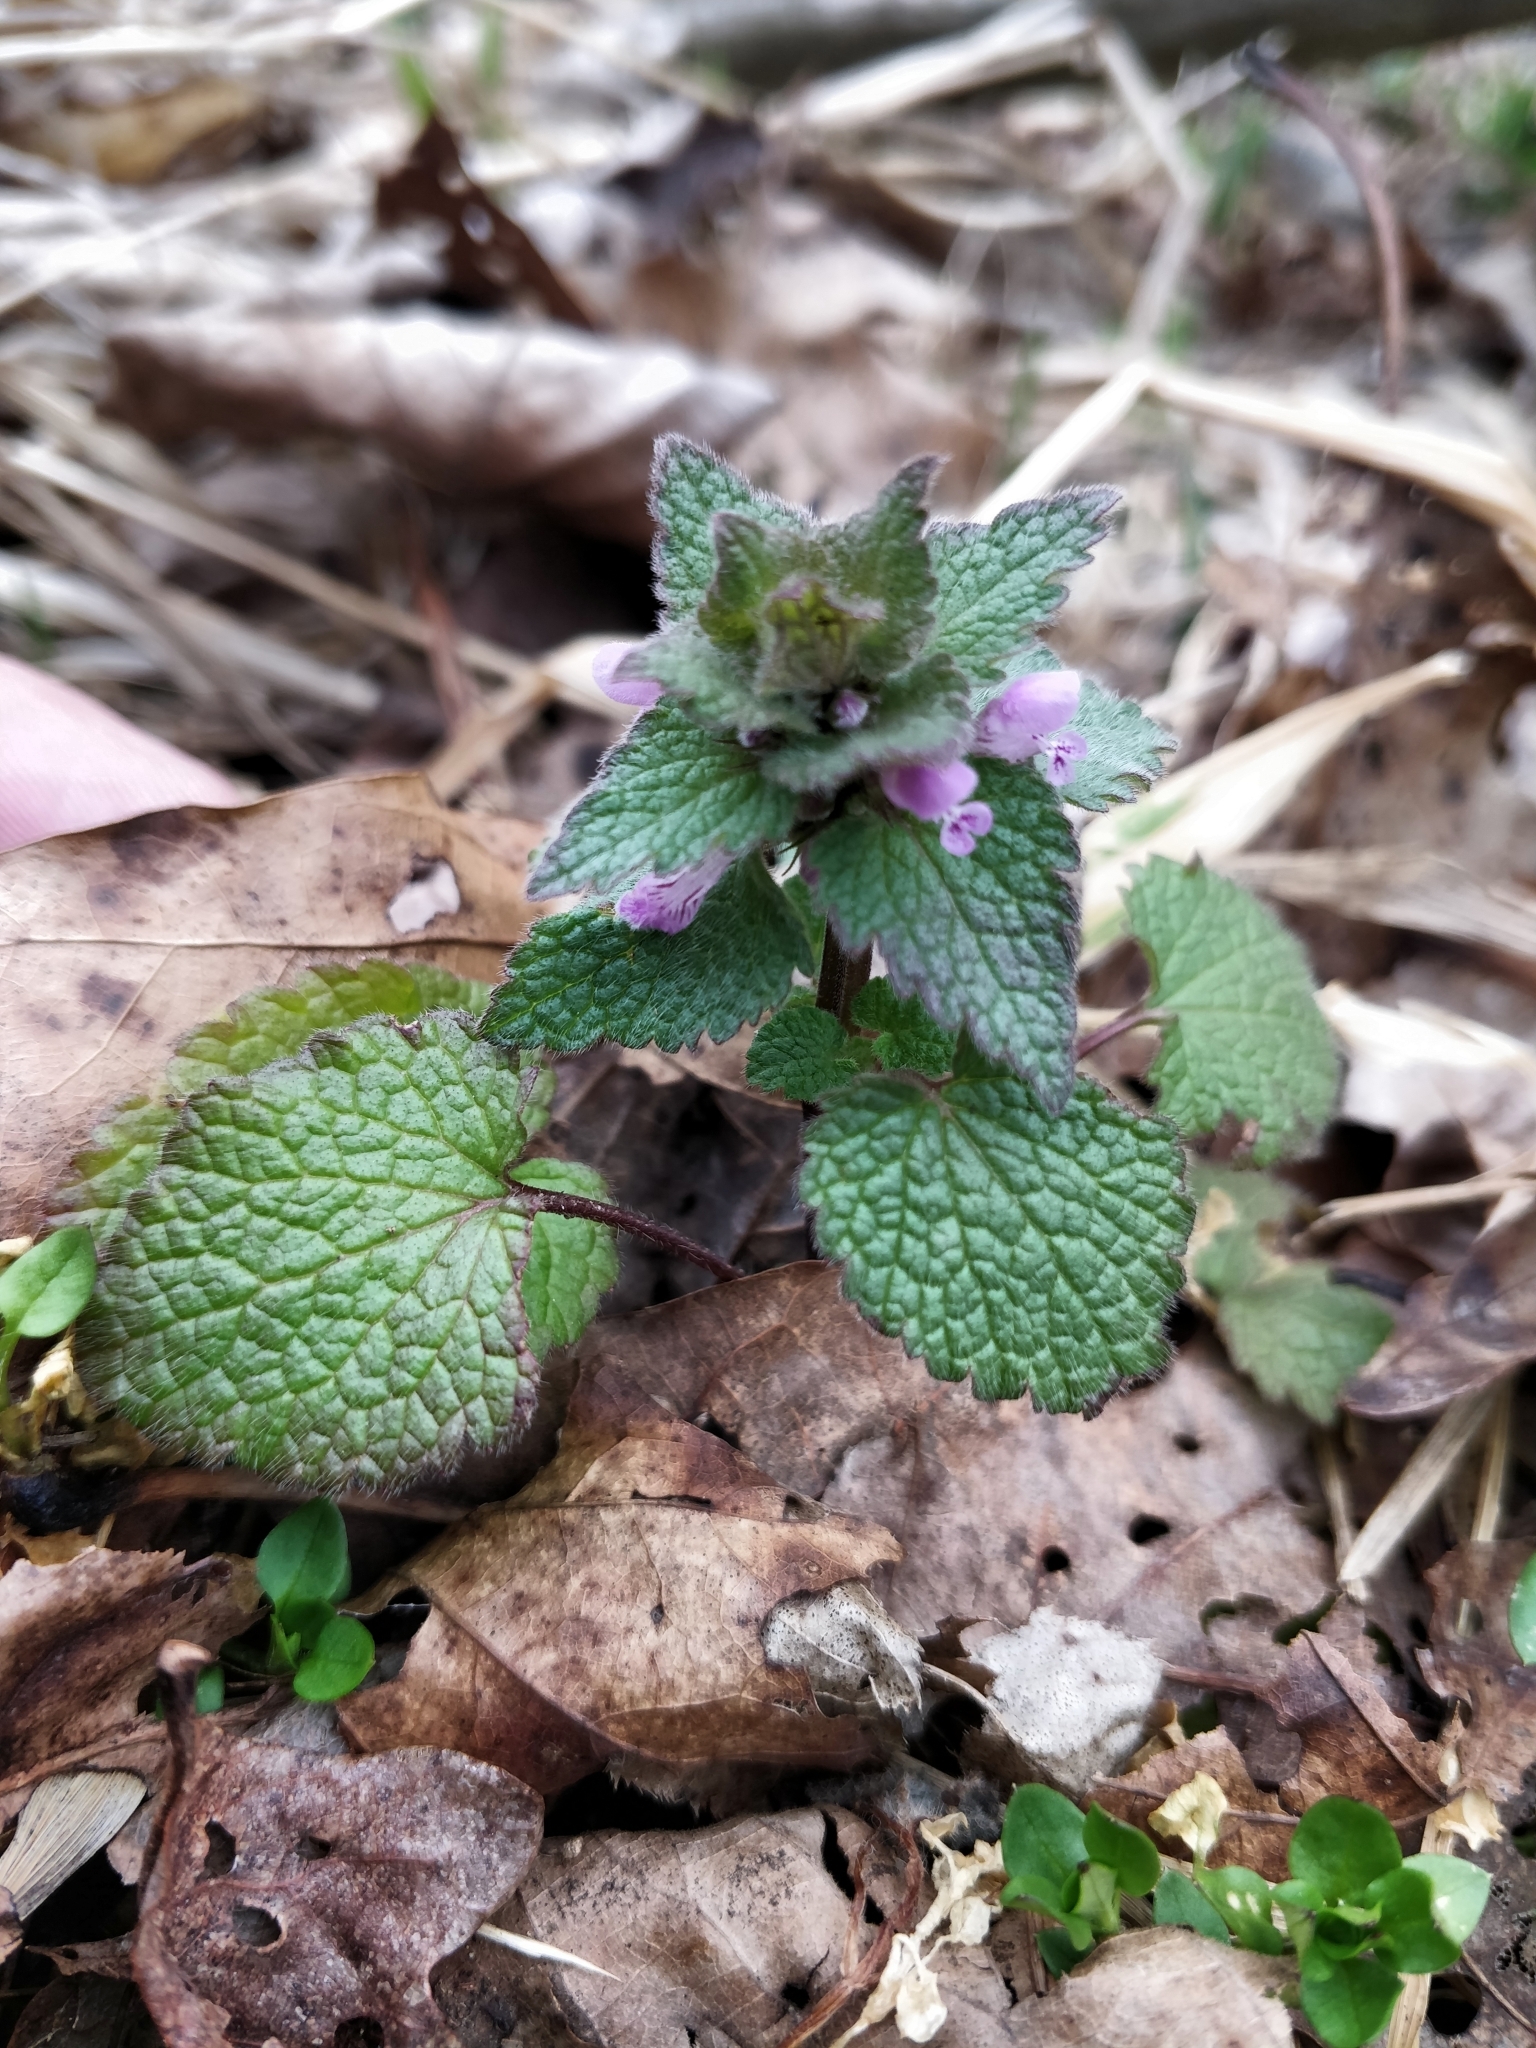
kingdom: Plantae
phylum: Tracheophyta
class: Magnoliopsida
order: Lamiales
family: Lamiaceae
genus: Lamium
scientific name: Lamium purpureum
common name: Red dead-nettle
